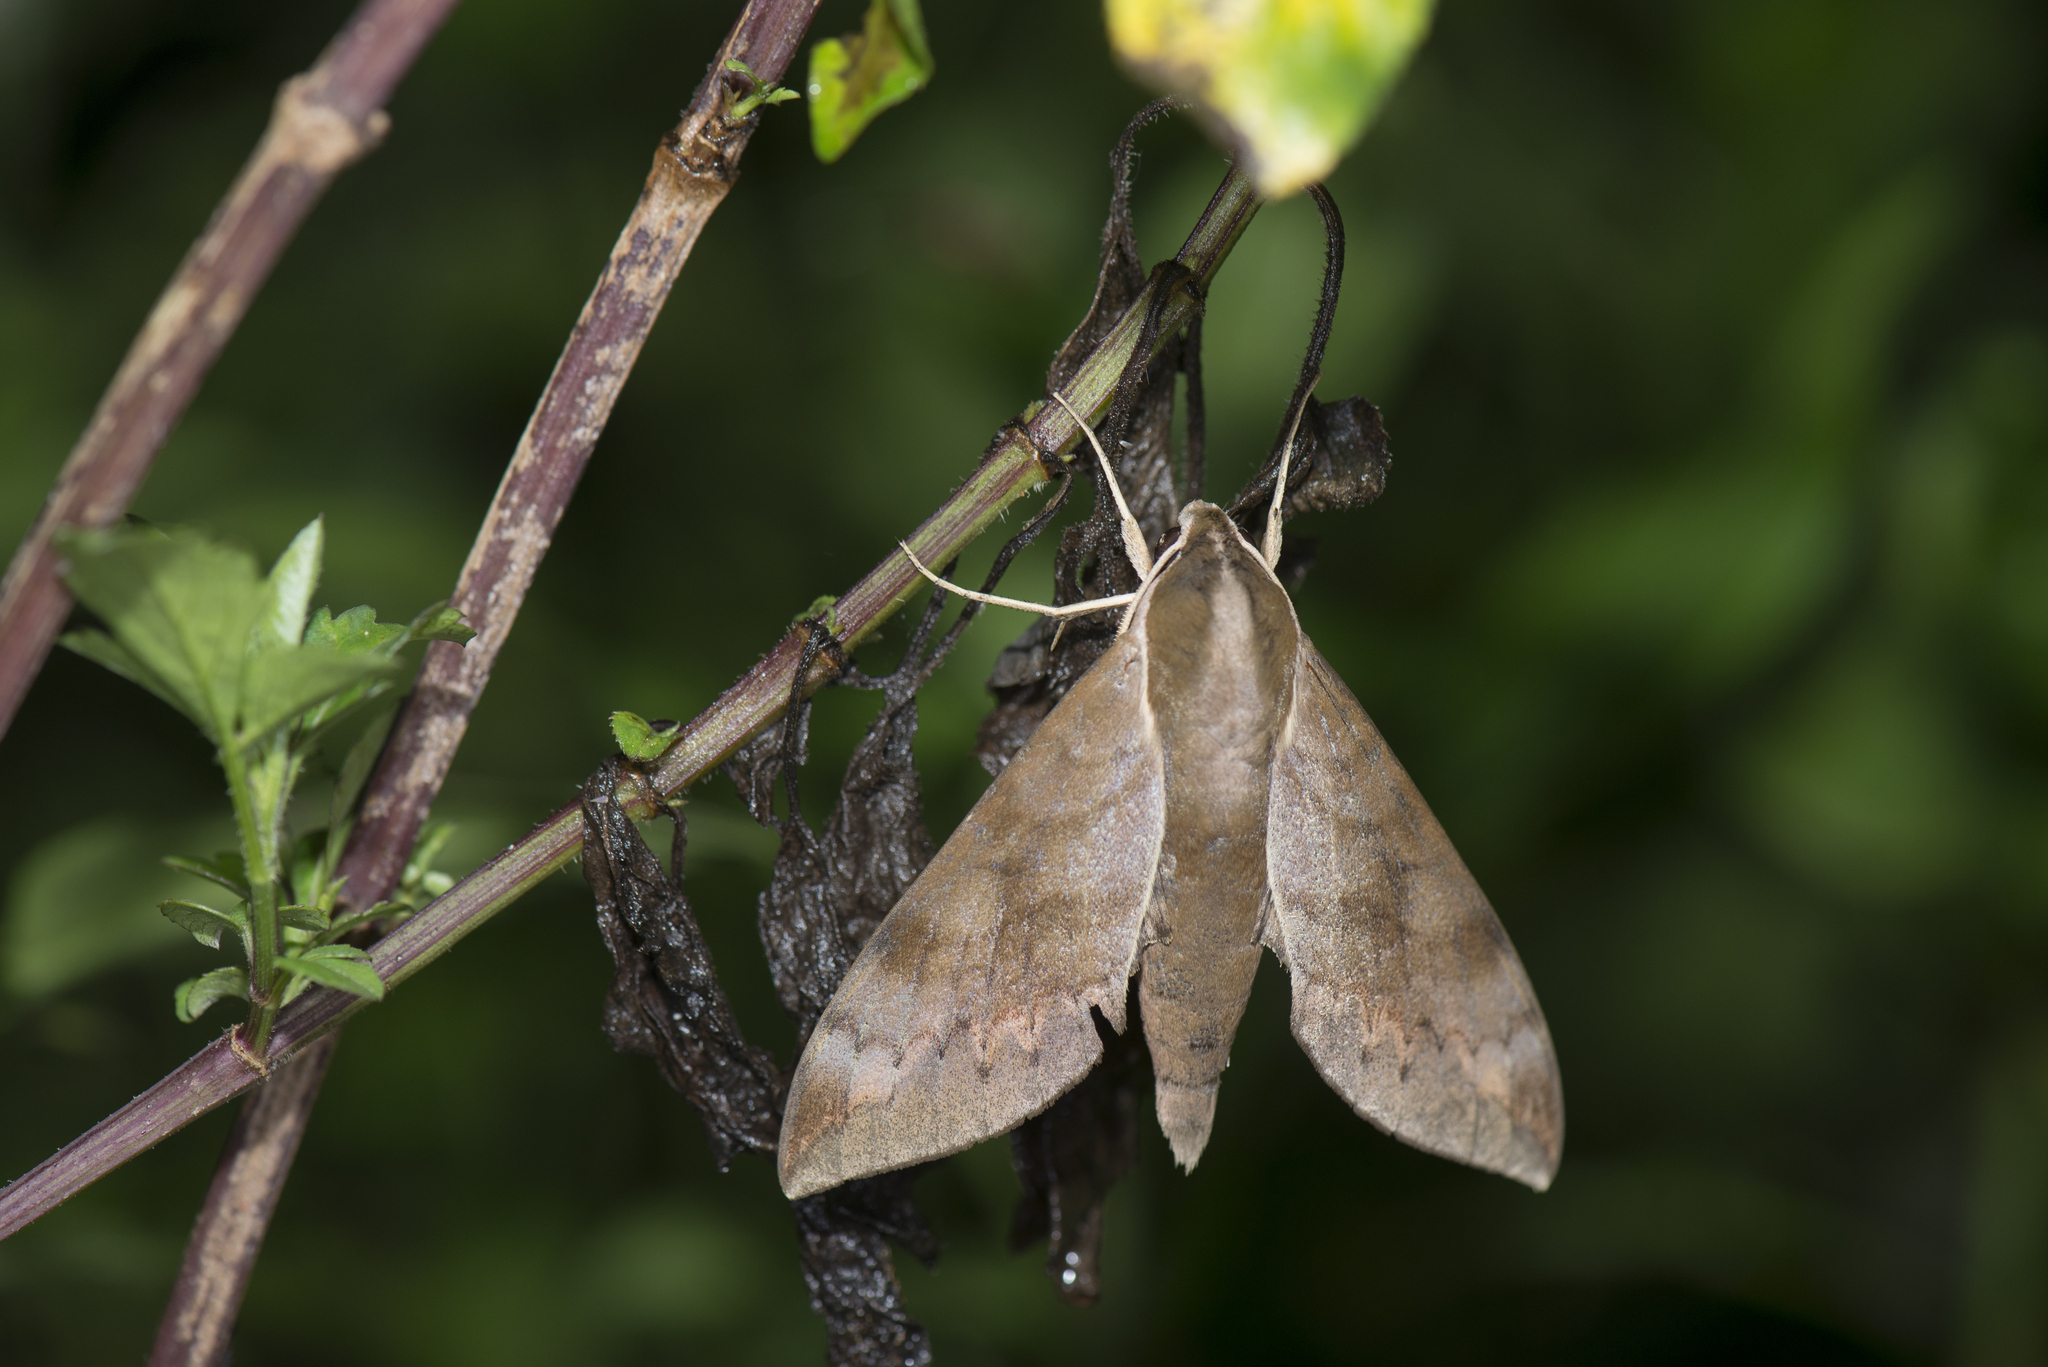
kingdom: Animalia
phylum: Arthropoda
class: Insecta
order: Lepidoptera
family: Sphingidae
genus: Acosmerycoides
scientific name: Acosmerycoides harterti
